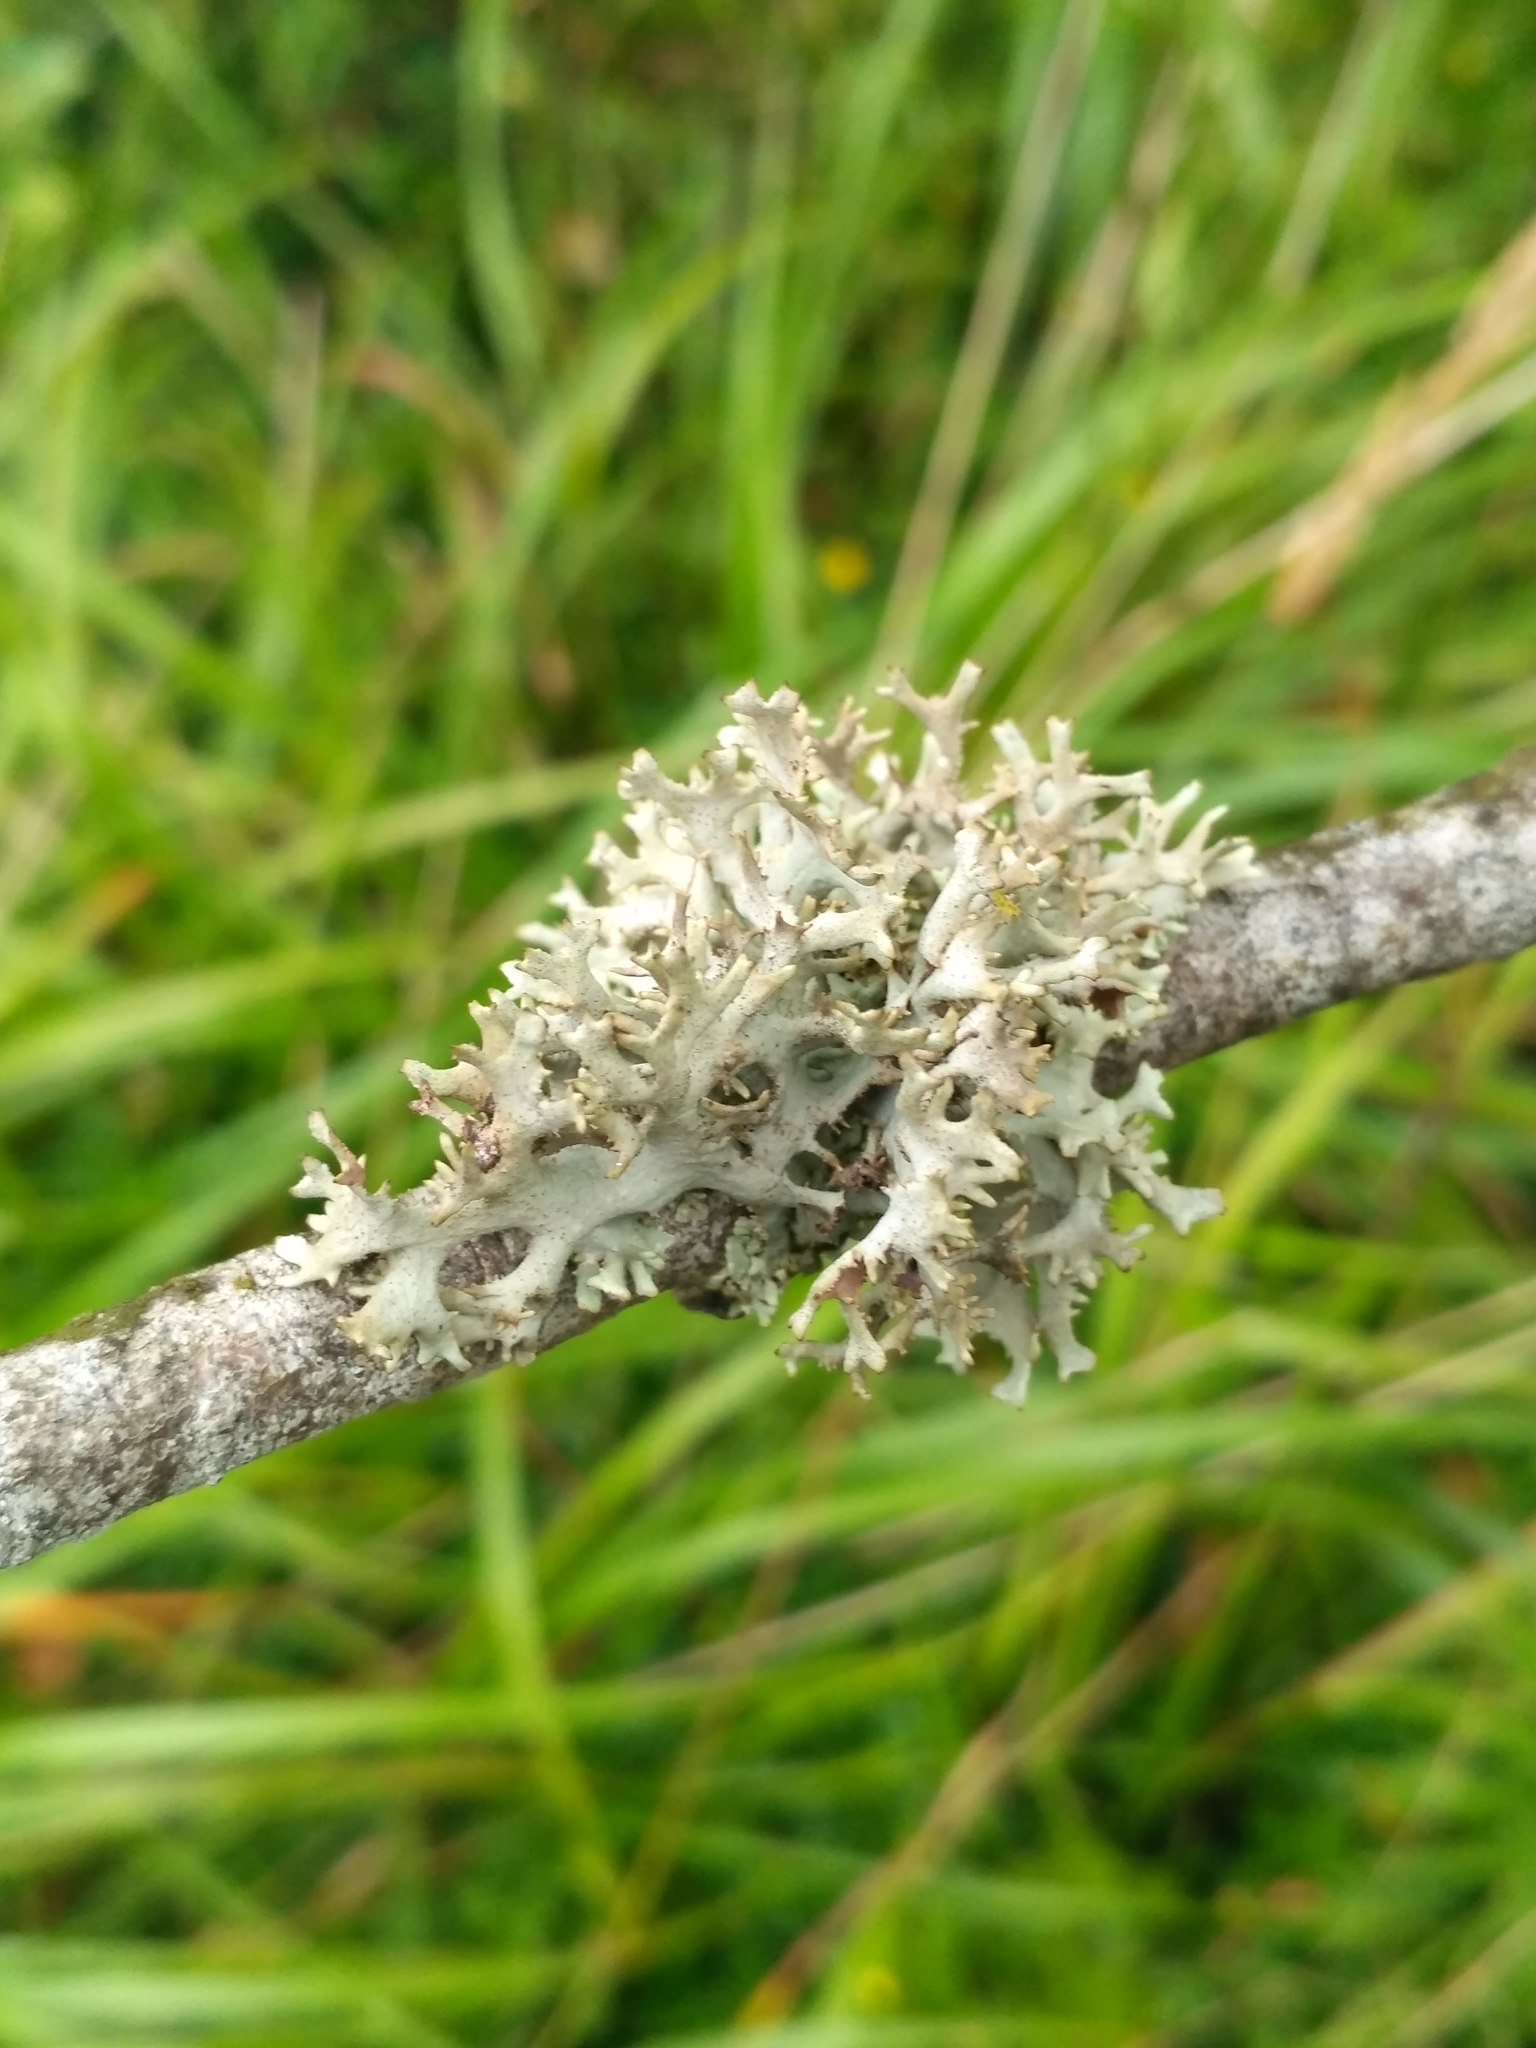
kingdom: Fungi
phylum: Ascomycota
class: Lecanoromycetes
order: Lecanorales
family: Parmeliaceae
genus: Pseudevernia
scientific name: Pseudevernia furfuracea
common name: Tree moss
